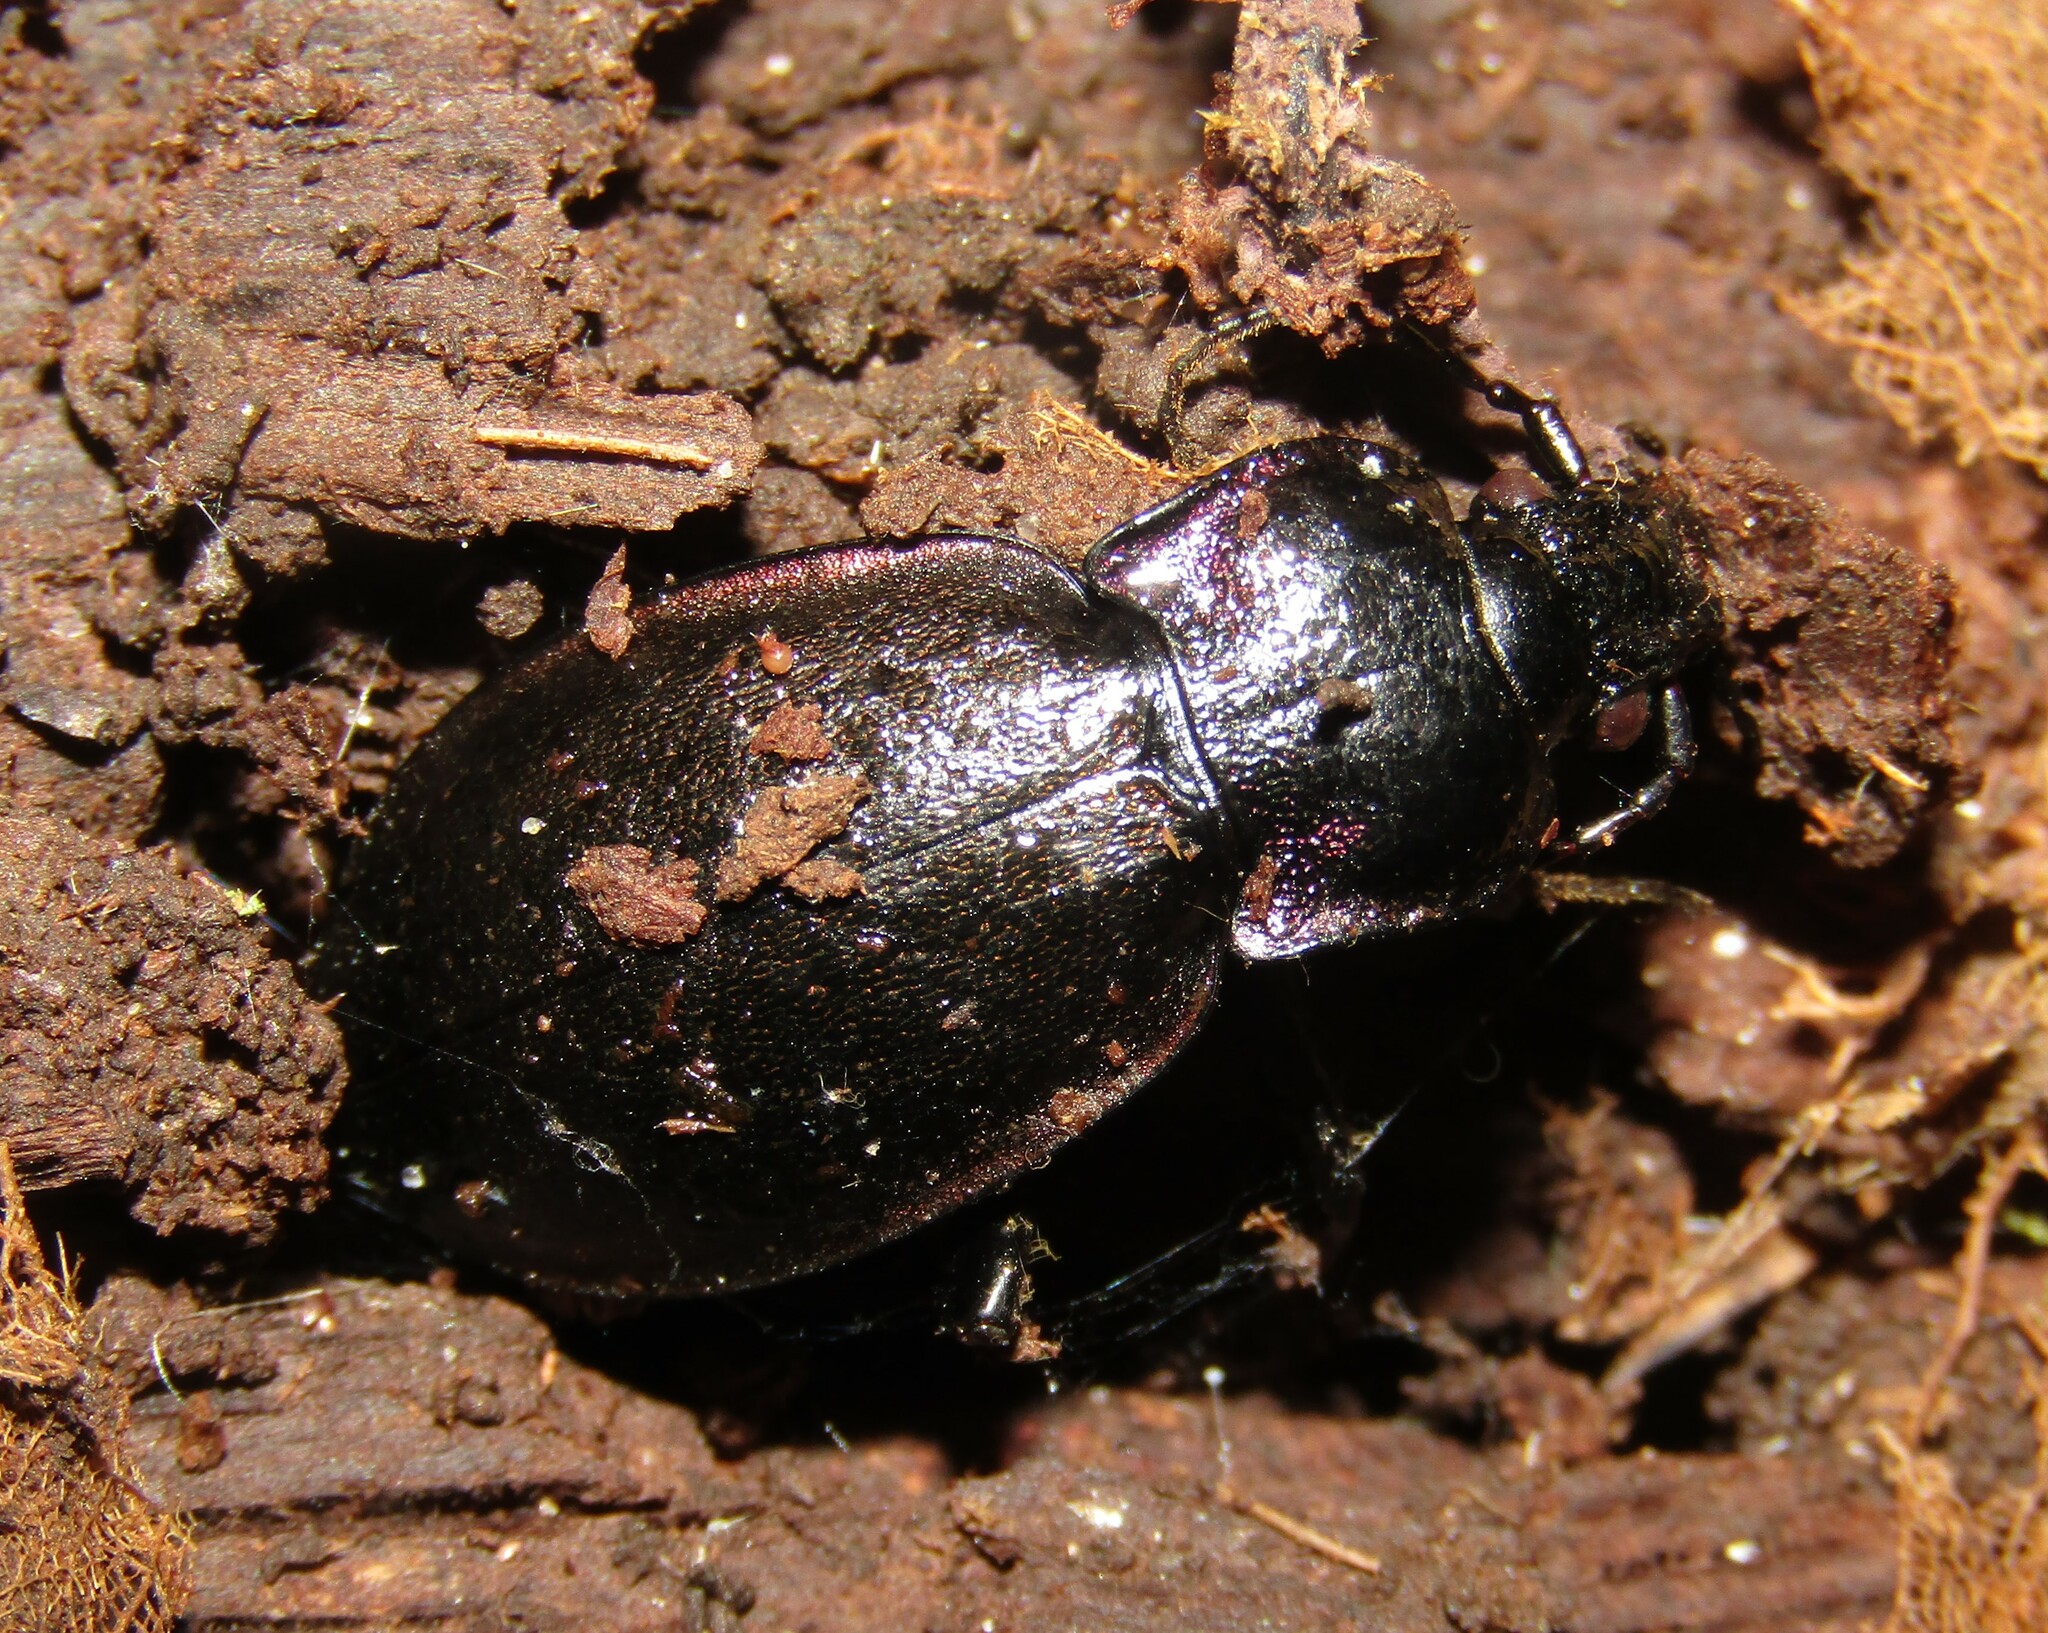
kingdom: Animalia
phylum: Arthropoda
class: Insecta
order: Coleoptera
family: Carabidae
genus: Carabus
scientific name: Carabus nemoralis
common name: European ground beetle
